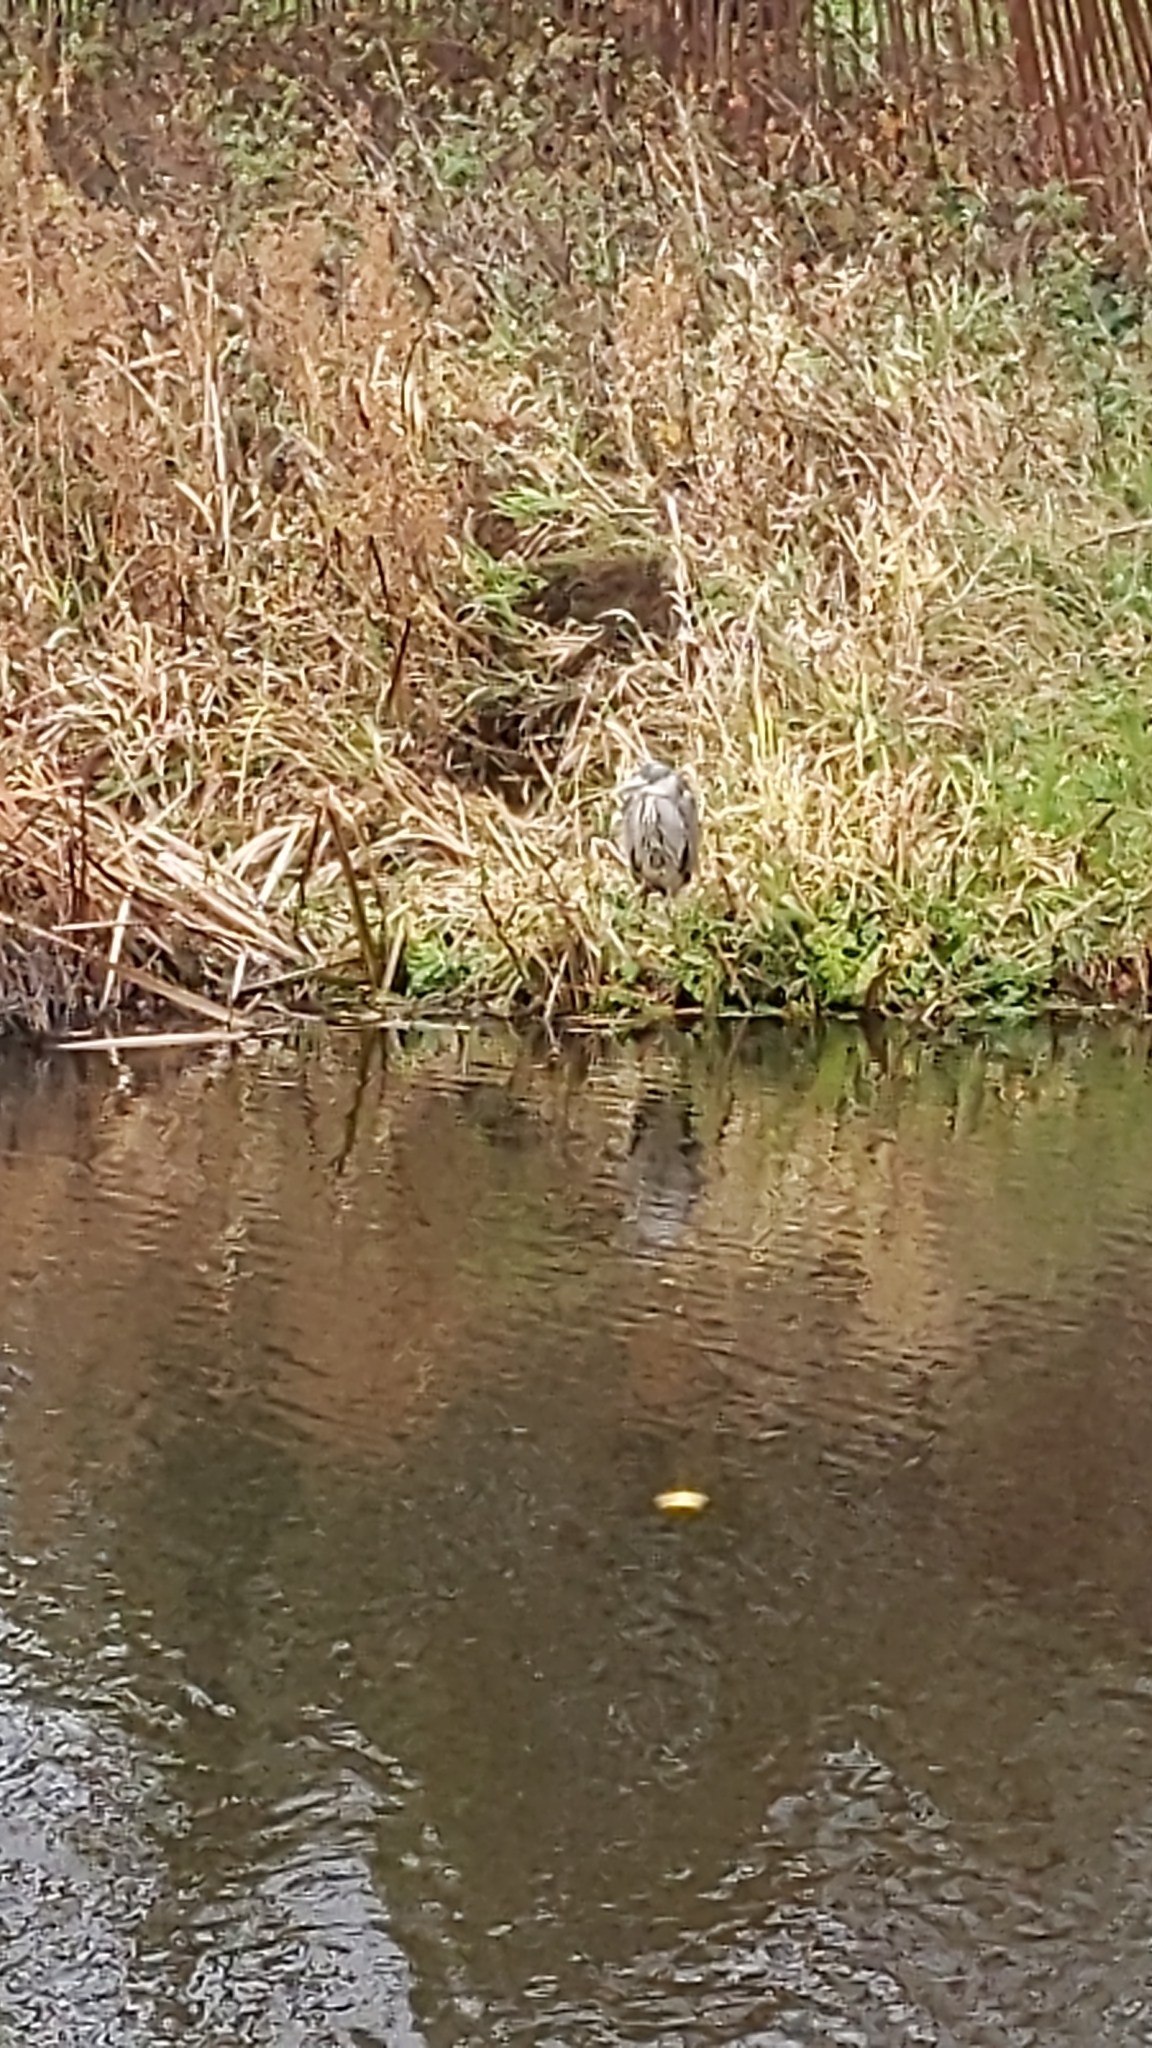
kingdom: Animalia
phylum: Chordata
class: Aves
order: Pelecaniformes
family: Ardeidae
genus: Ardea
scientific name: Ardea cinerea
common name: Grey heron
